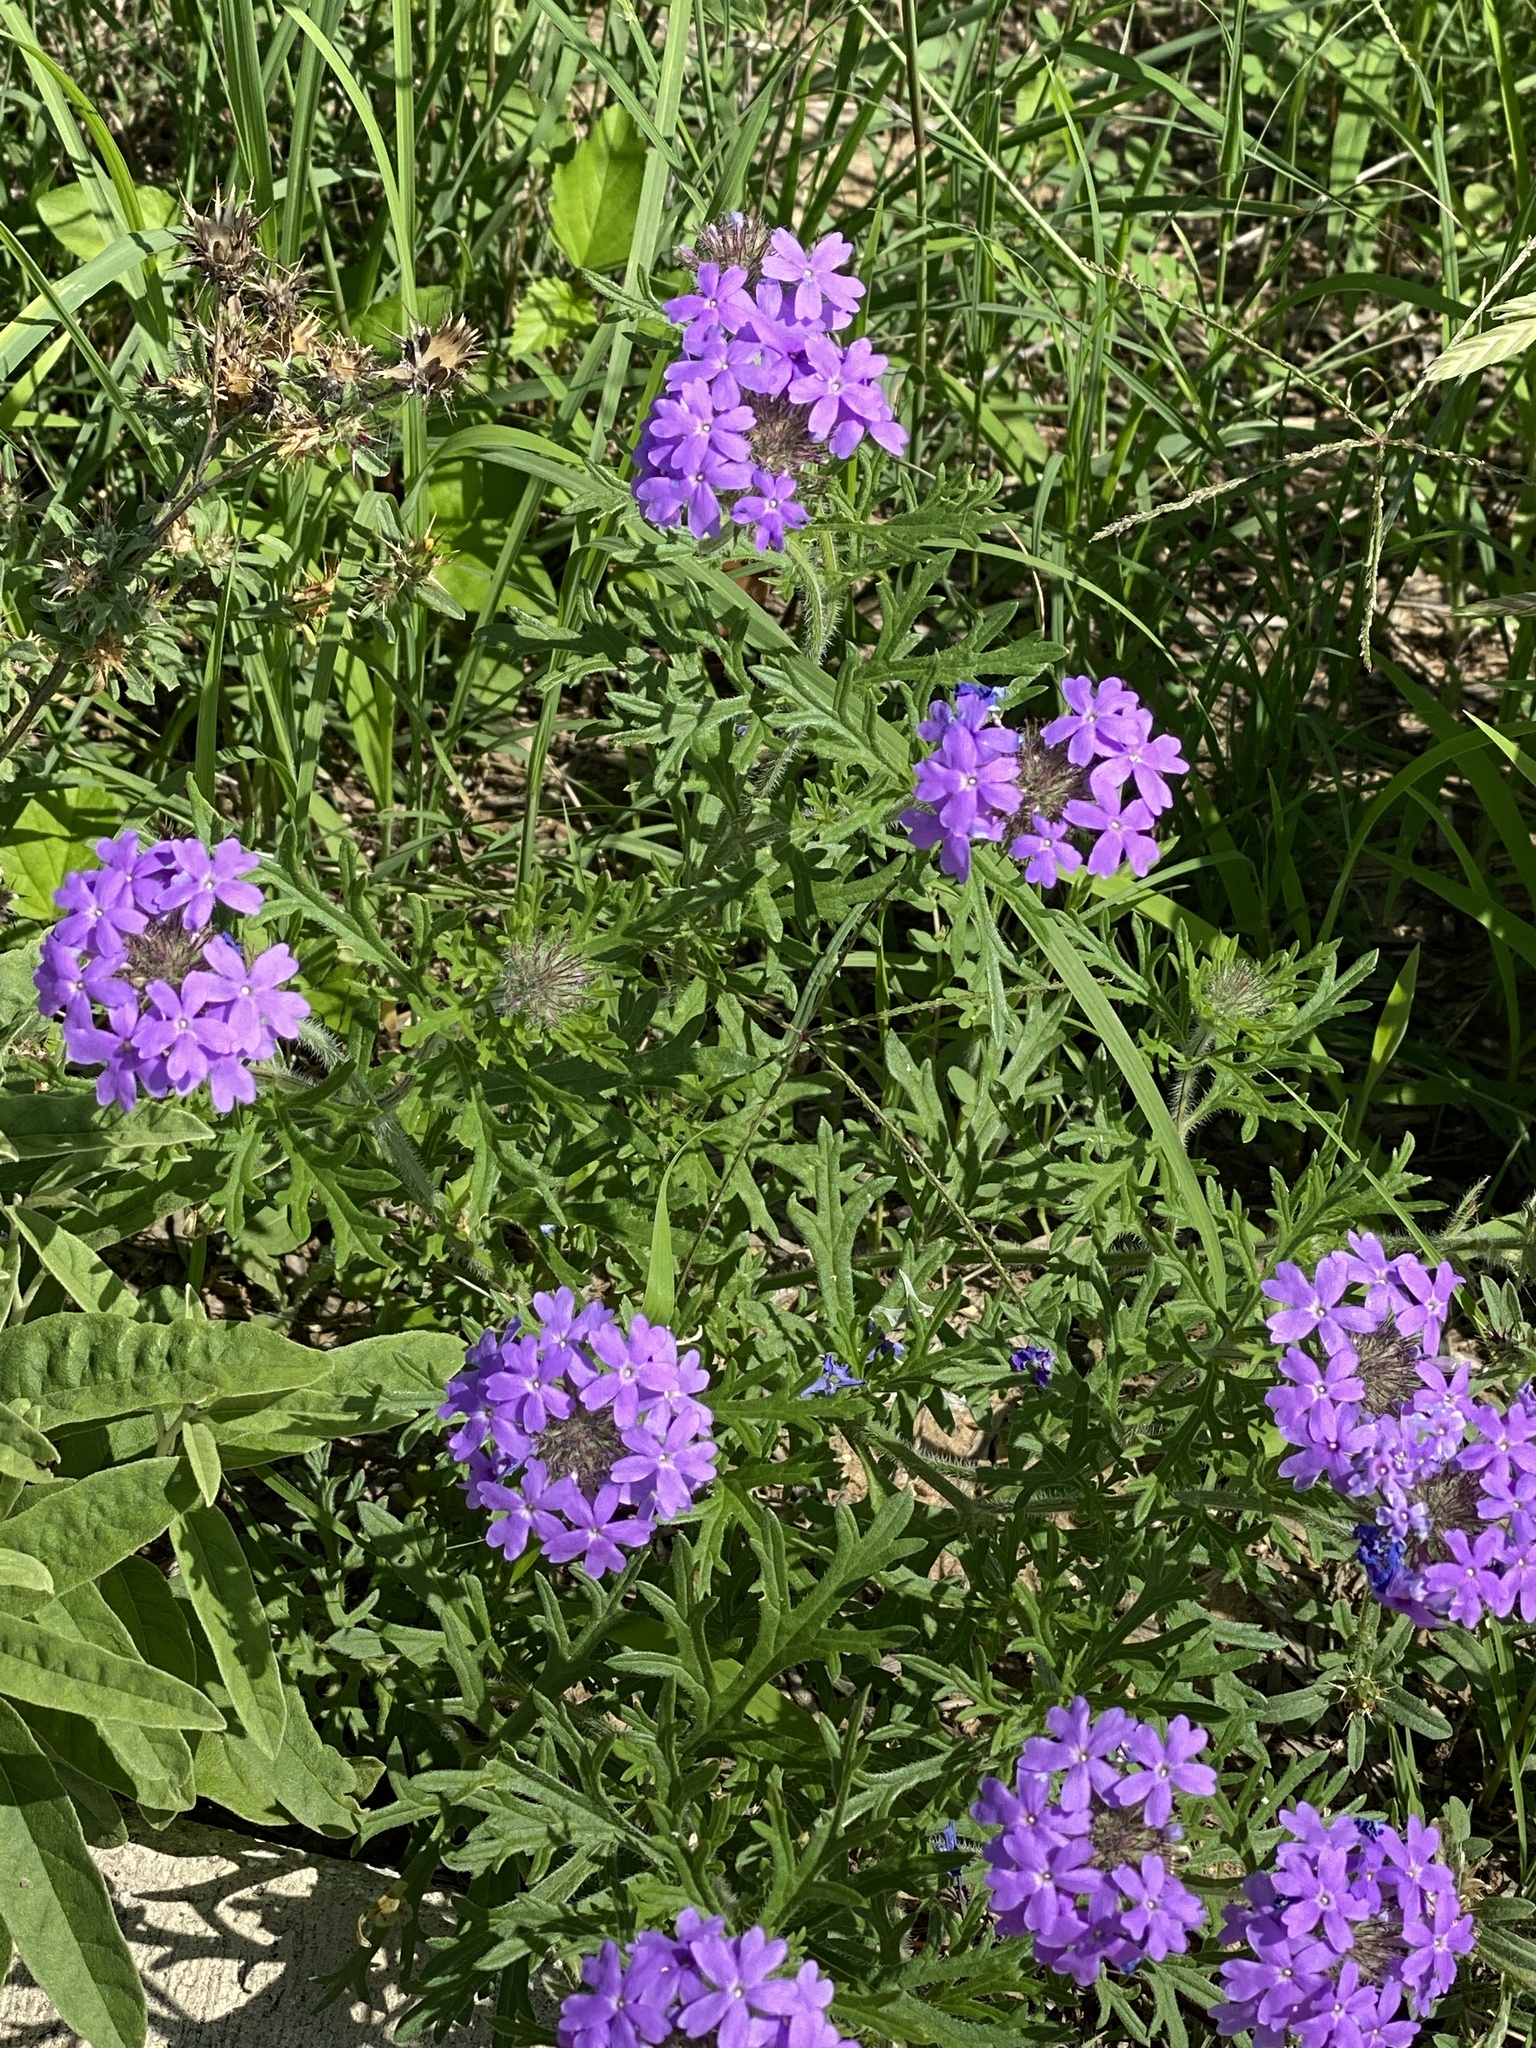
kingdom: Plantae
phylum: Tracheophyta
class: Magnoliopsida
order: Lamiales
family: Verbenaceae
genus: Verbena
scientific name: Verbena bipinnatifida
